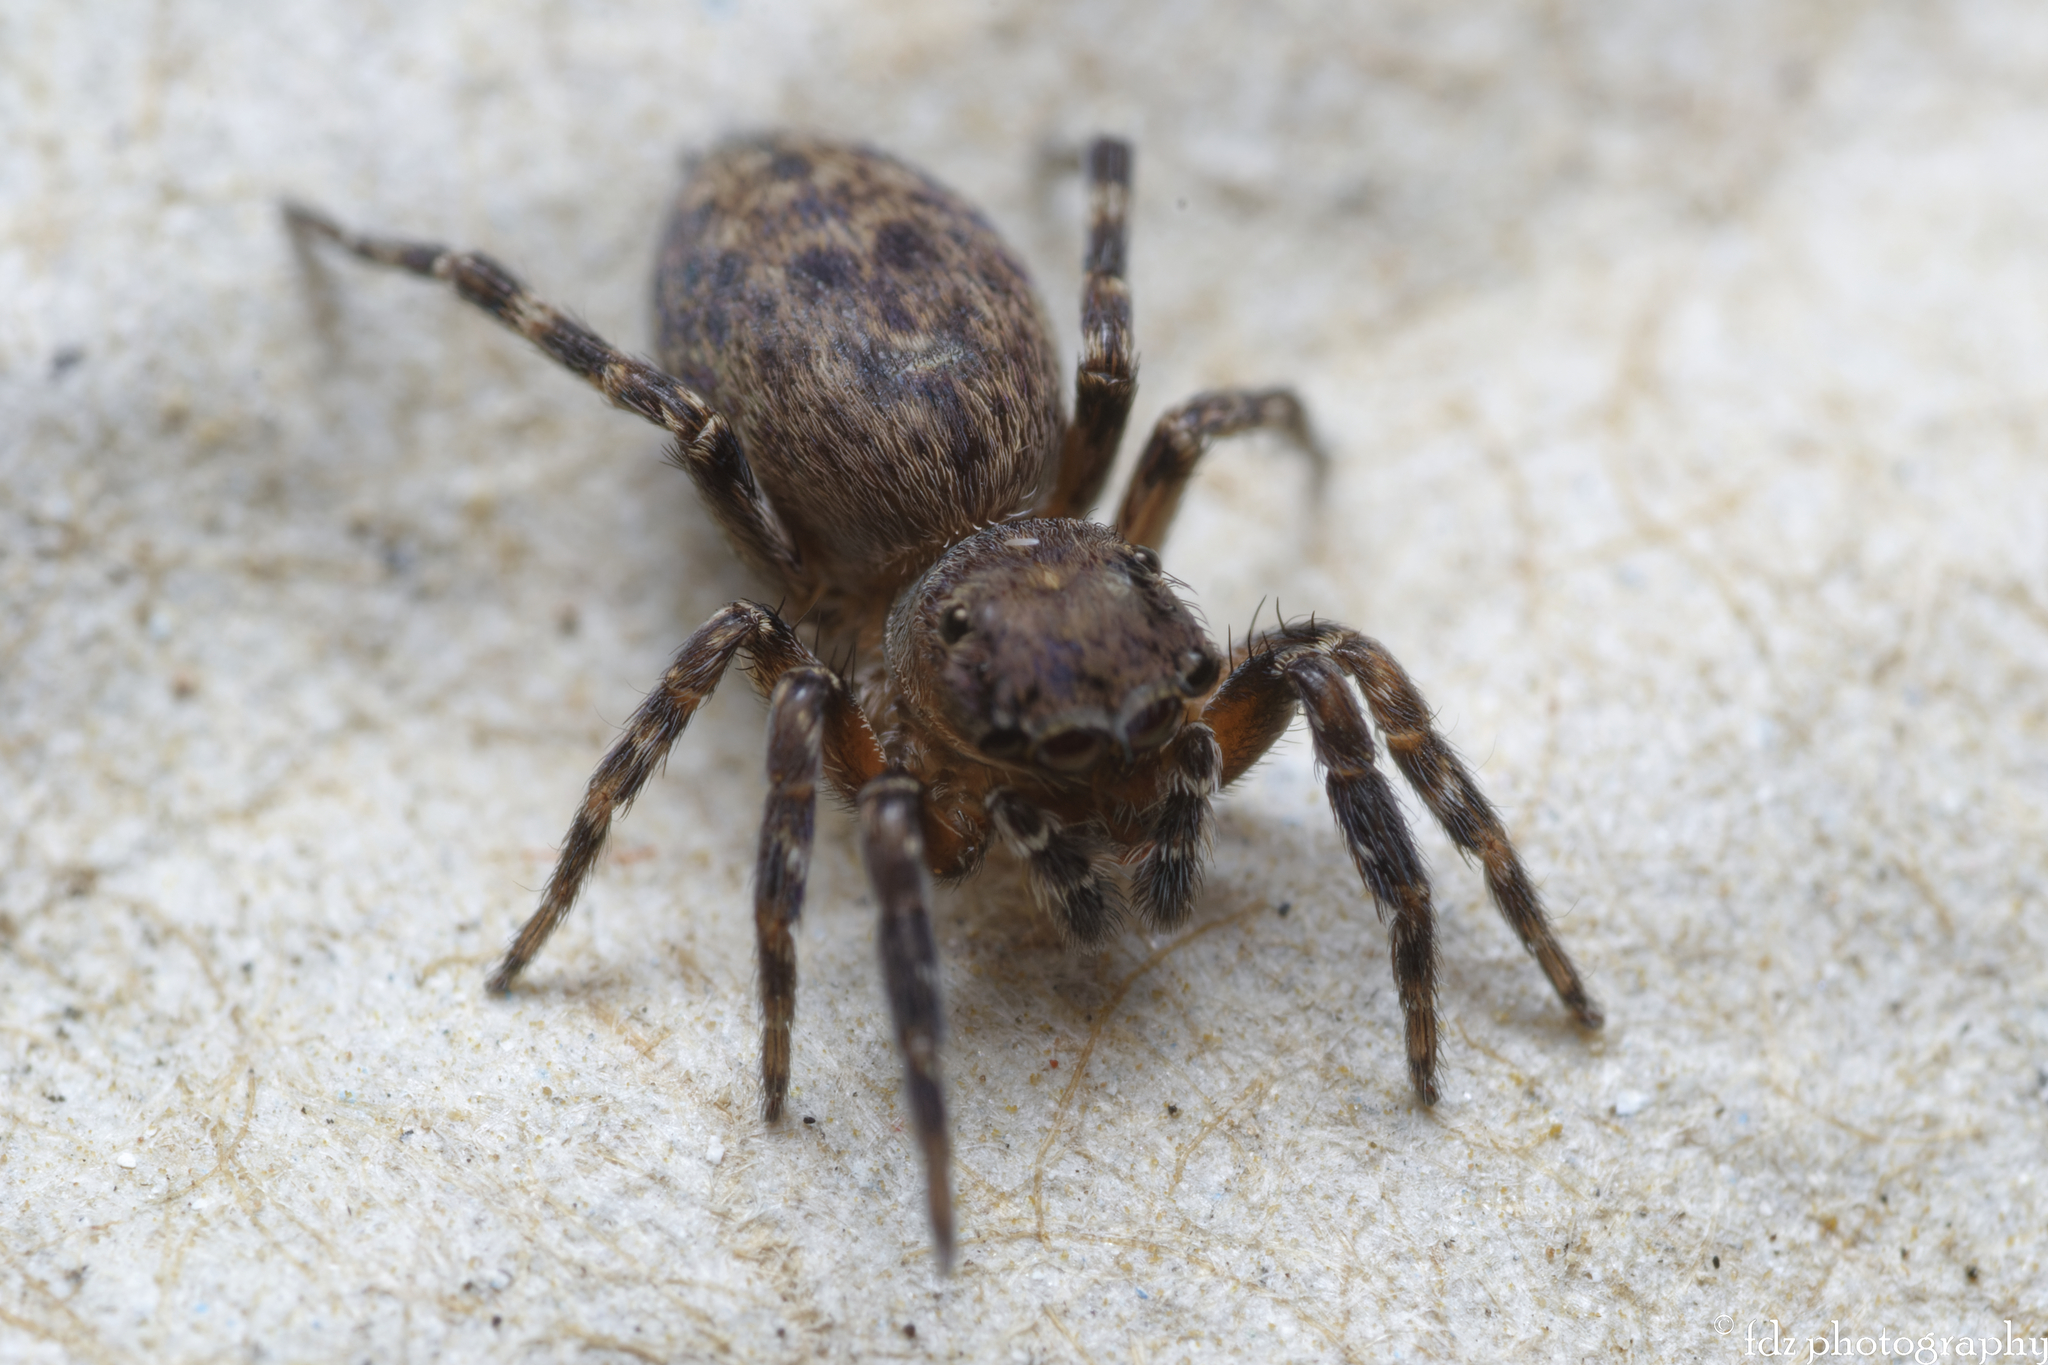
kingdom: Animalia
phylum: Arthropoda
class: Arachnida
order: Araneae
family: Salticidae
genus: Cyrba
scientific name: Cyrba algerina
